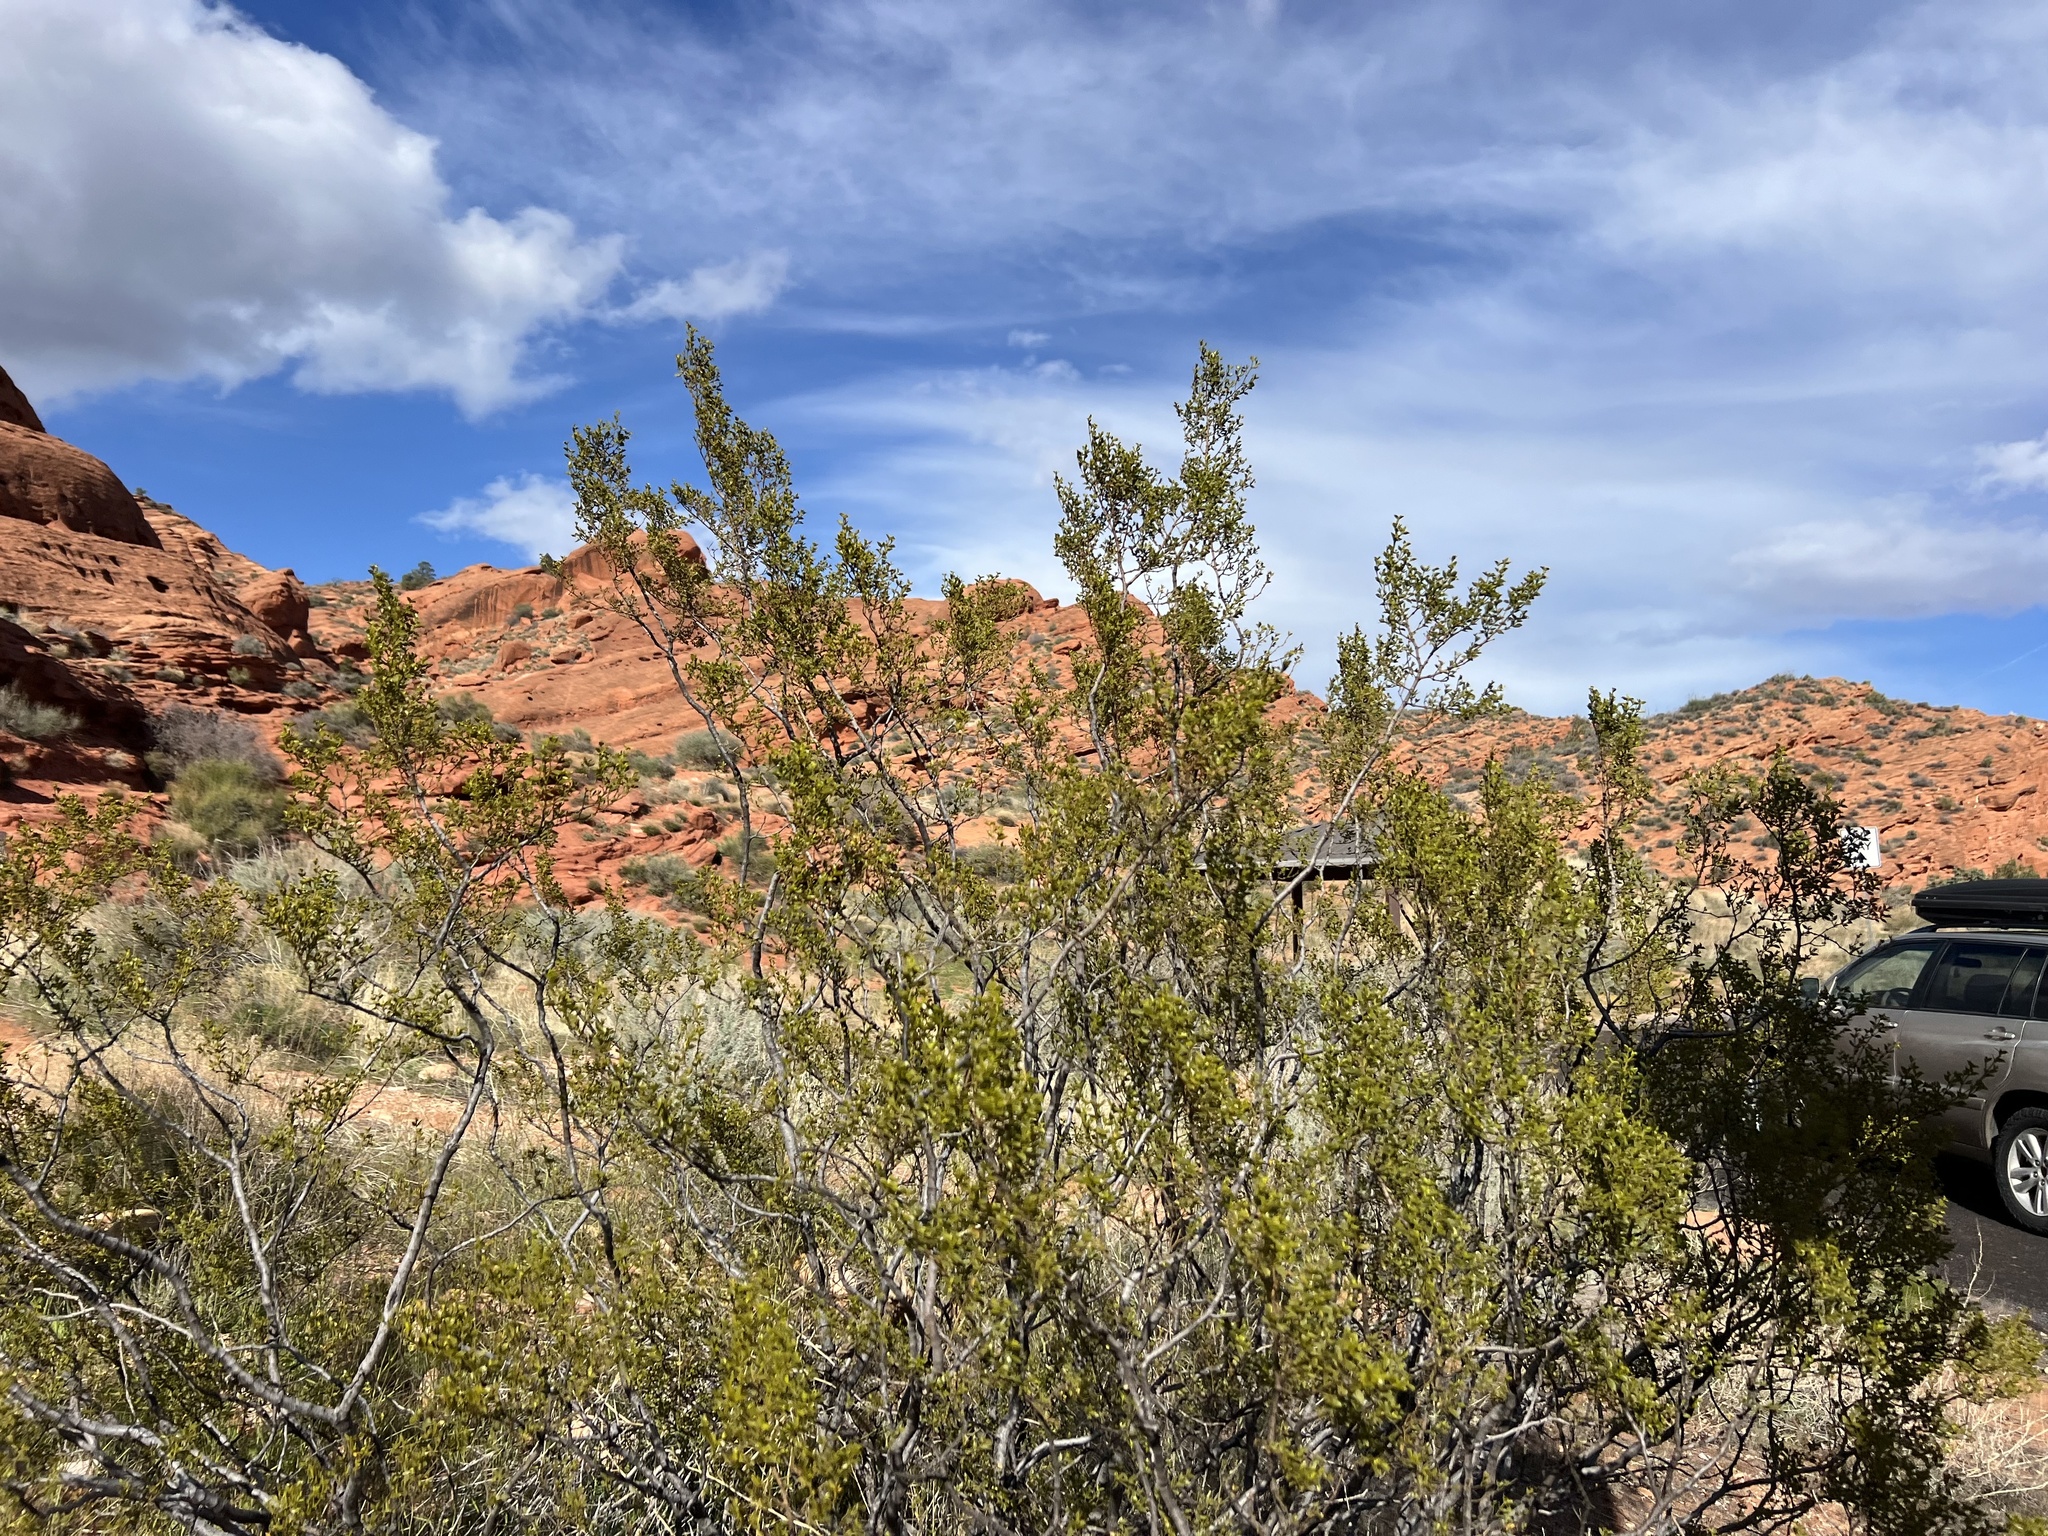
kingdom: Plantae
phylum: Tracheophyta
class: Magnoliopsida
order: Zygophyllales
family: Zygophyllaceae
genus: Larrea
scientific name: Larrea tridentata
